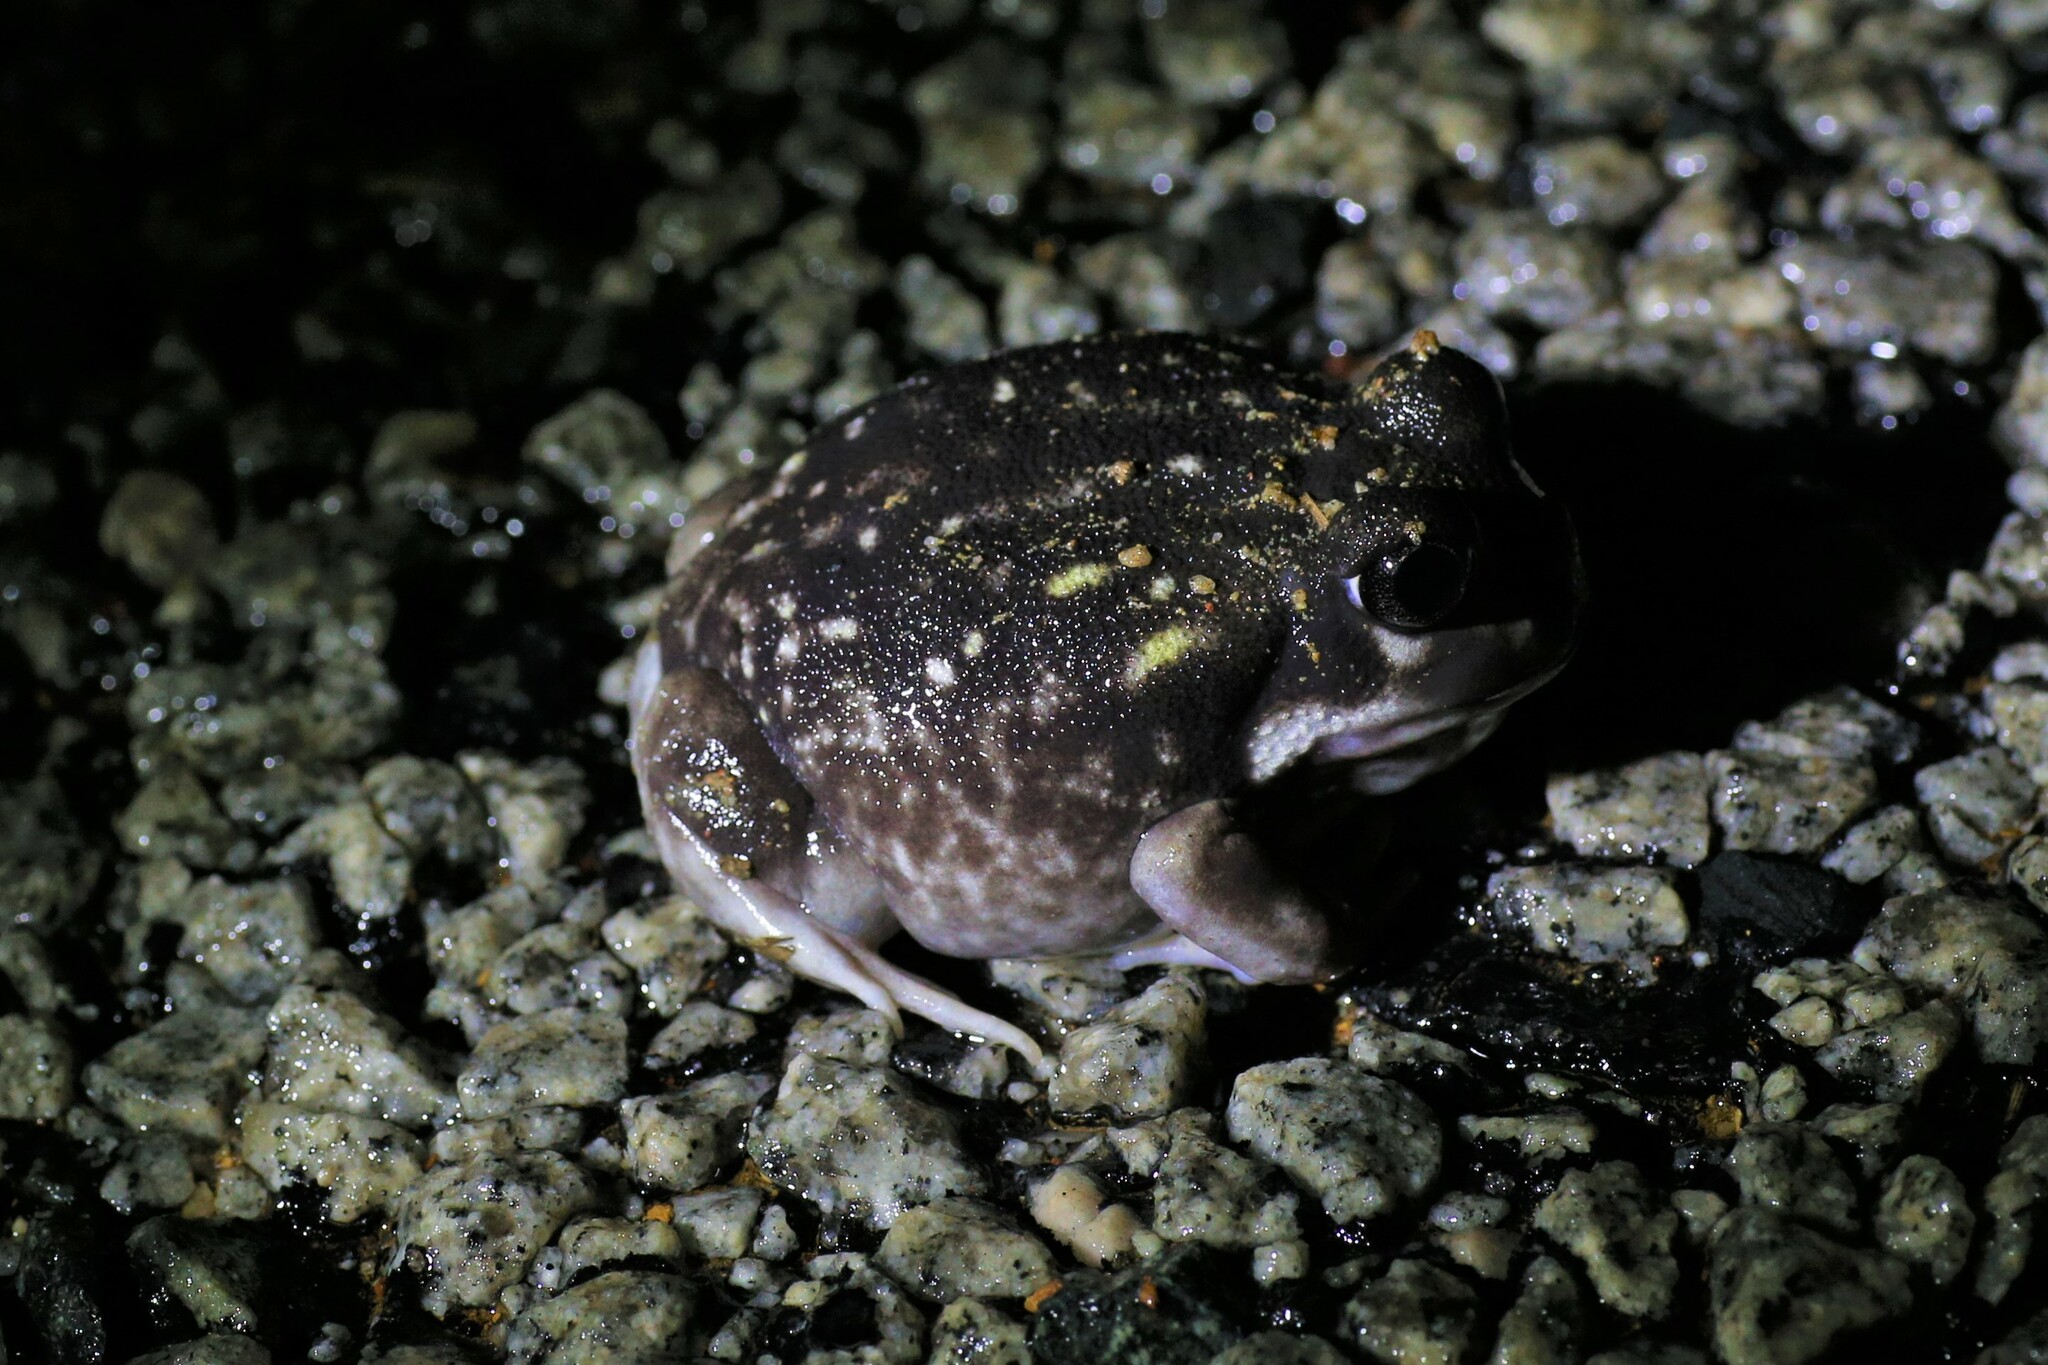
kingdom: Animalia
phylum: Chordata
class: Amphibia
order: Anura
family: Limnodynastidae
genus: Heleioporus
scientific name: Heleioporus albopunctatus
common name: Western spotted frog
